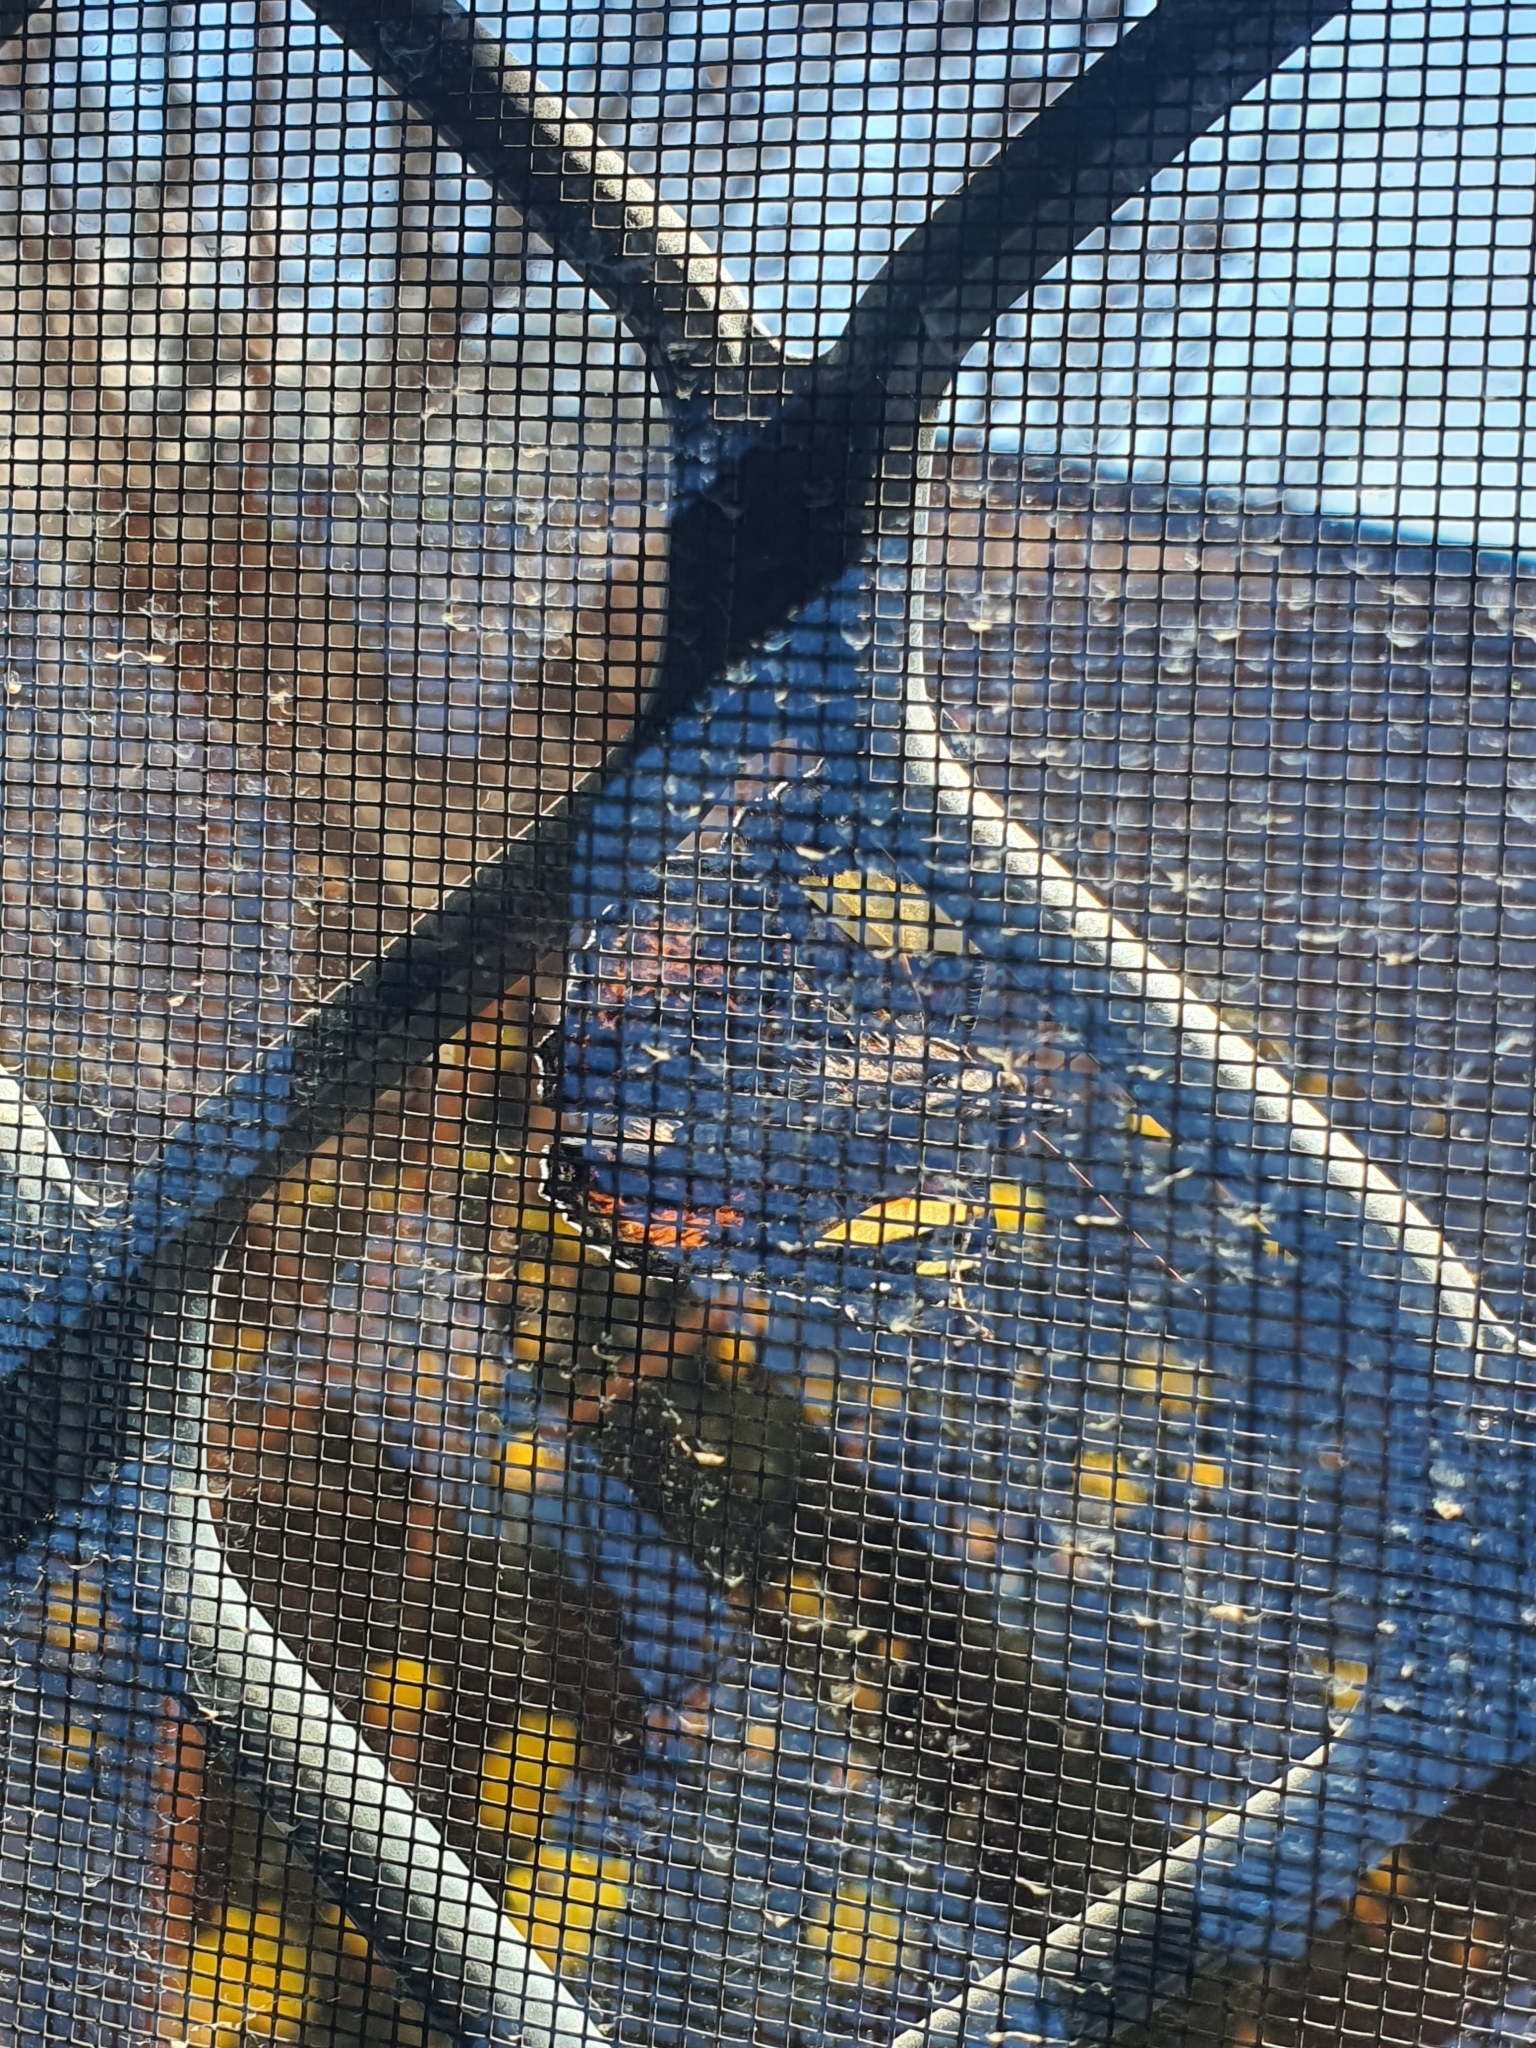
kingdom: Animalia
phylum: Arthropoda
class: Insecta
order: Lepidoptera
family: Nymphalidae
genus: Vanessa
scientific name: Vanessa itea
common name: Yellow admiral
